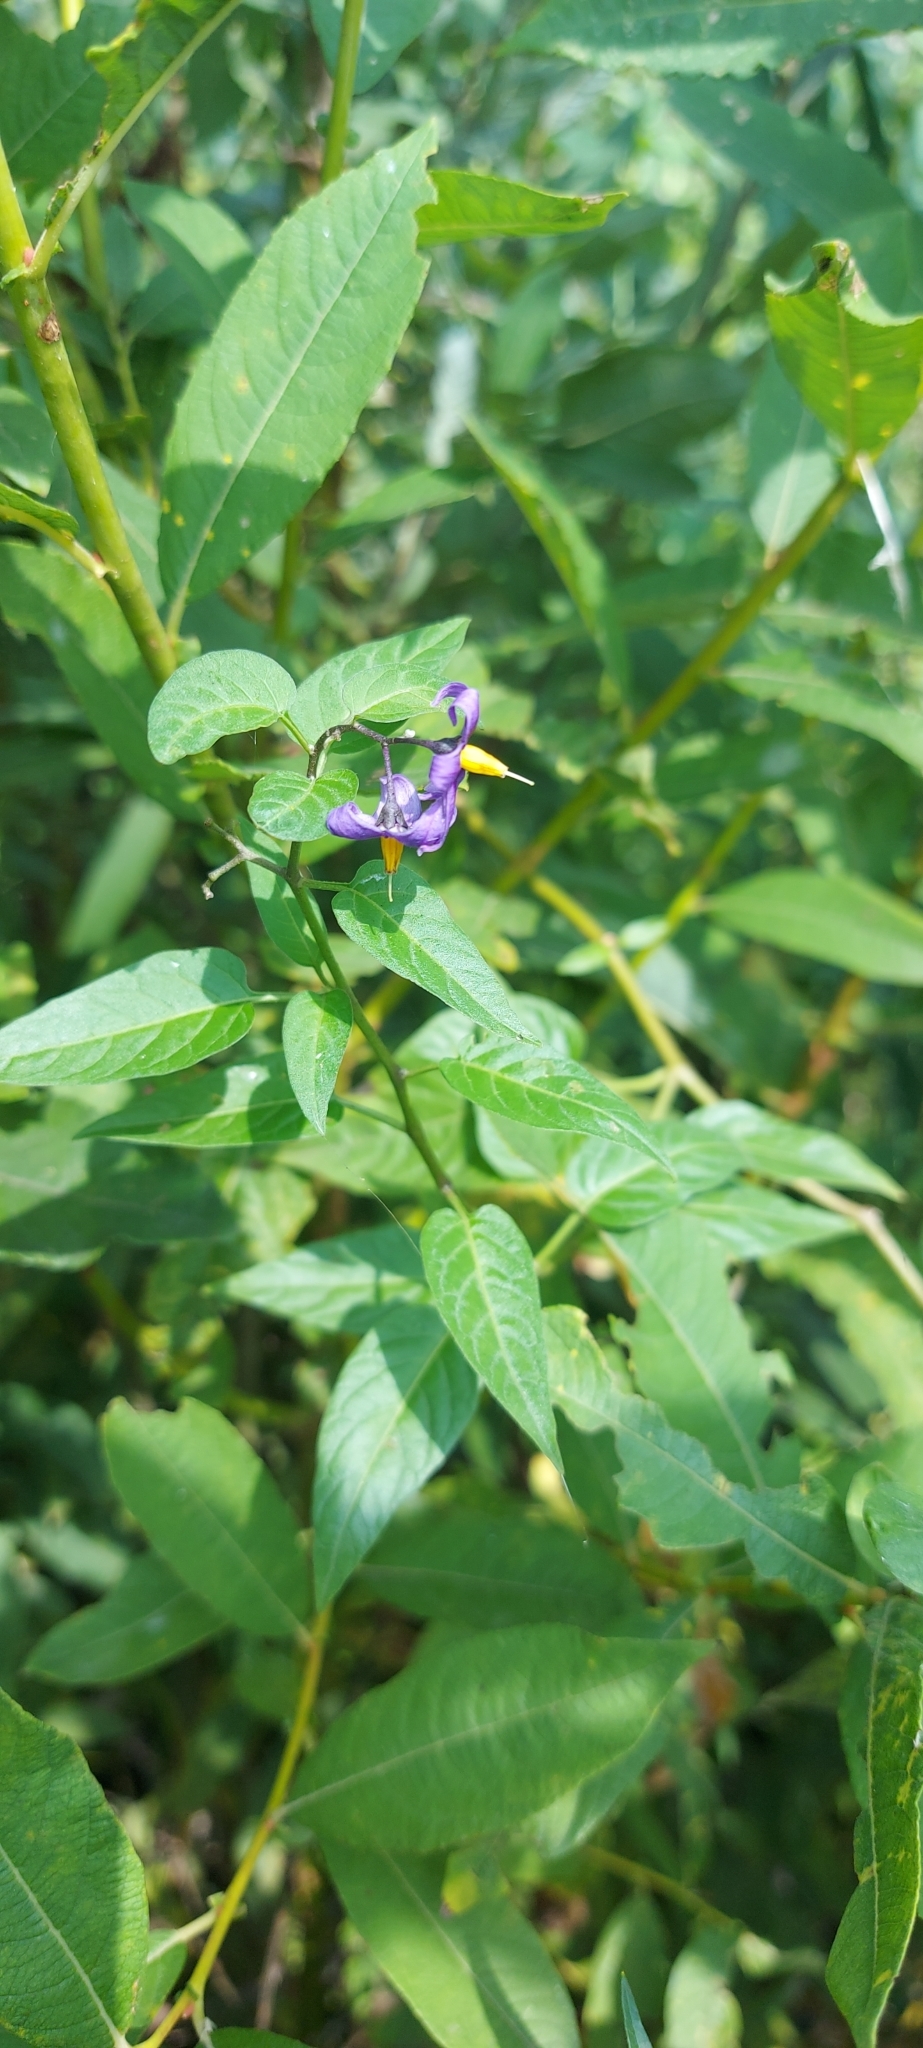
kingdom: Plantae
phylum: Tracheophyta
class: Magnoliopsida
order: Solanales
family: Solanaceae
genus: Solanum
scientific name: Solanum dulcamara
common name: Climbing nightshade
